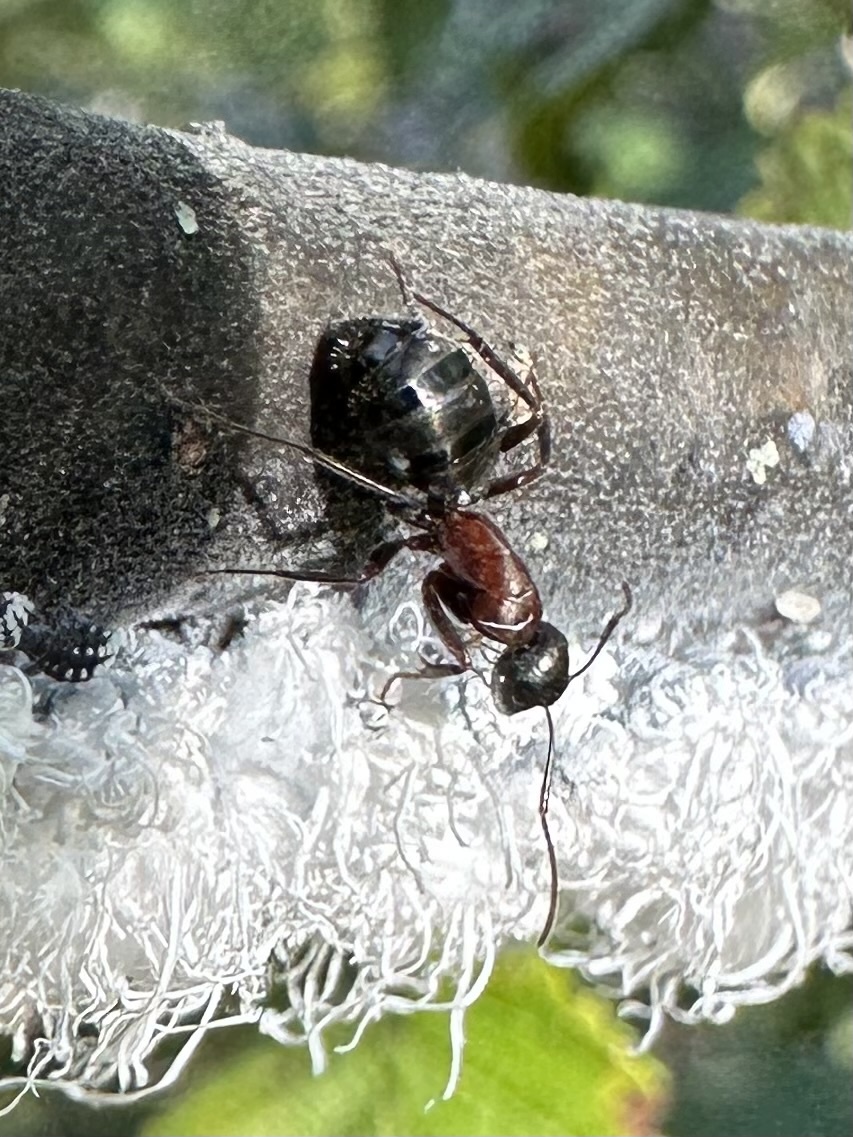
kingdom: Animalia
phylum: Arthropoda
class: Insecta
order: Hymenoptera
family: Formicidae
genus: Camponotus
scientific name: Camponotus novaeboracensis
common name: New york carpenter ant
